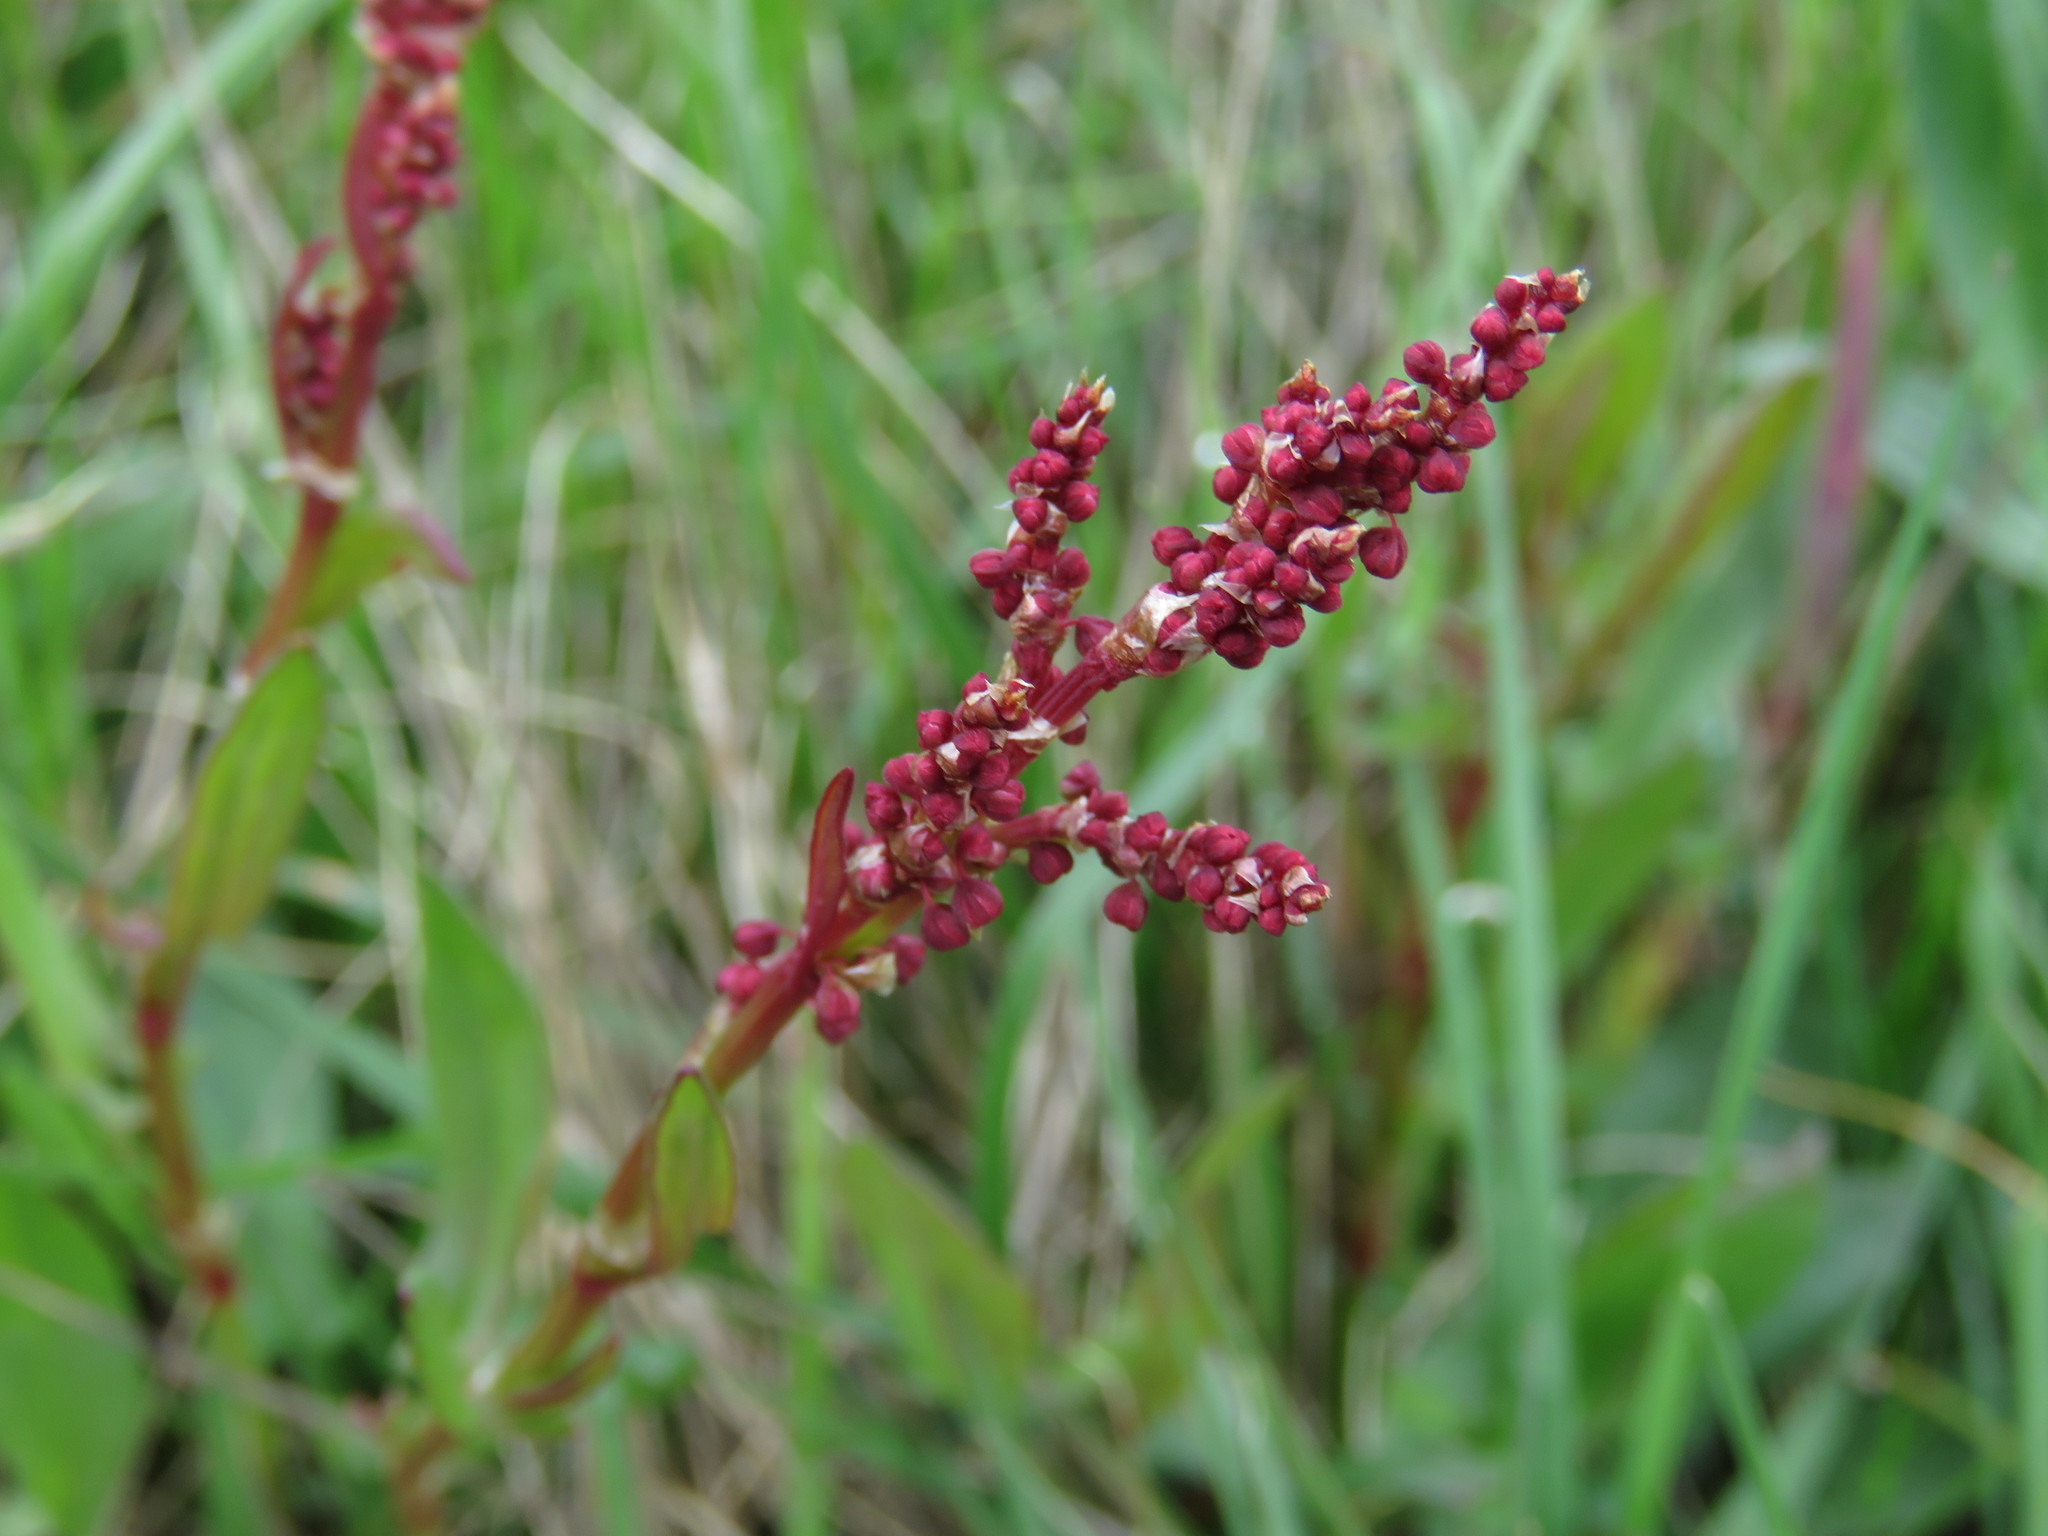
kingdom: Plantae
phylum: Tracheophyta
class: Magnoliopsida
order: Caryophyllales
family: Polygonaceae
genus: Rumex
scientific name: Rumex acetosella
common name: Common sheep sorrel
